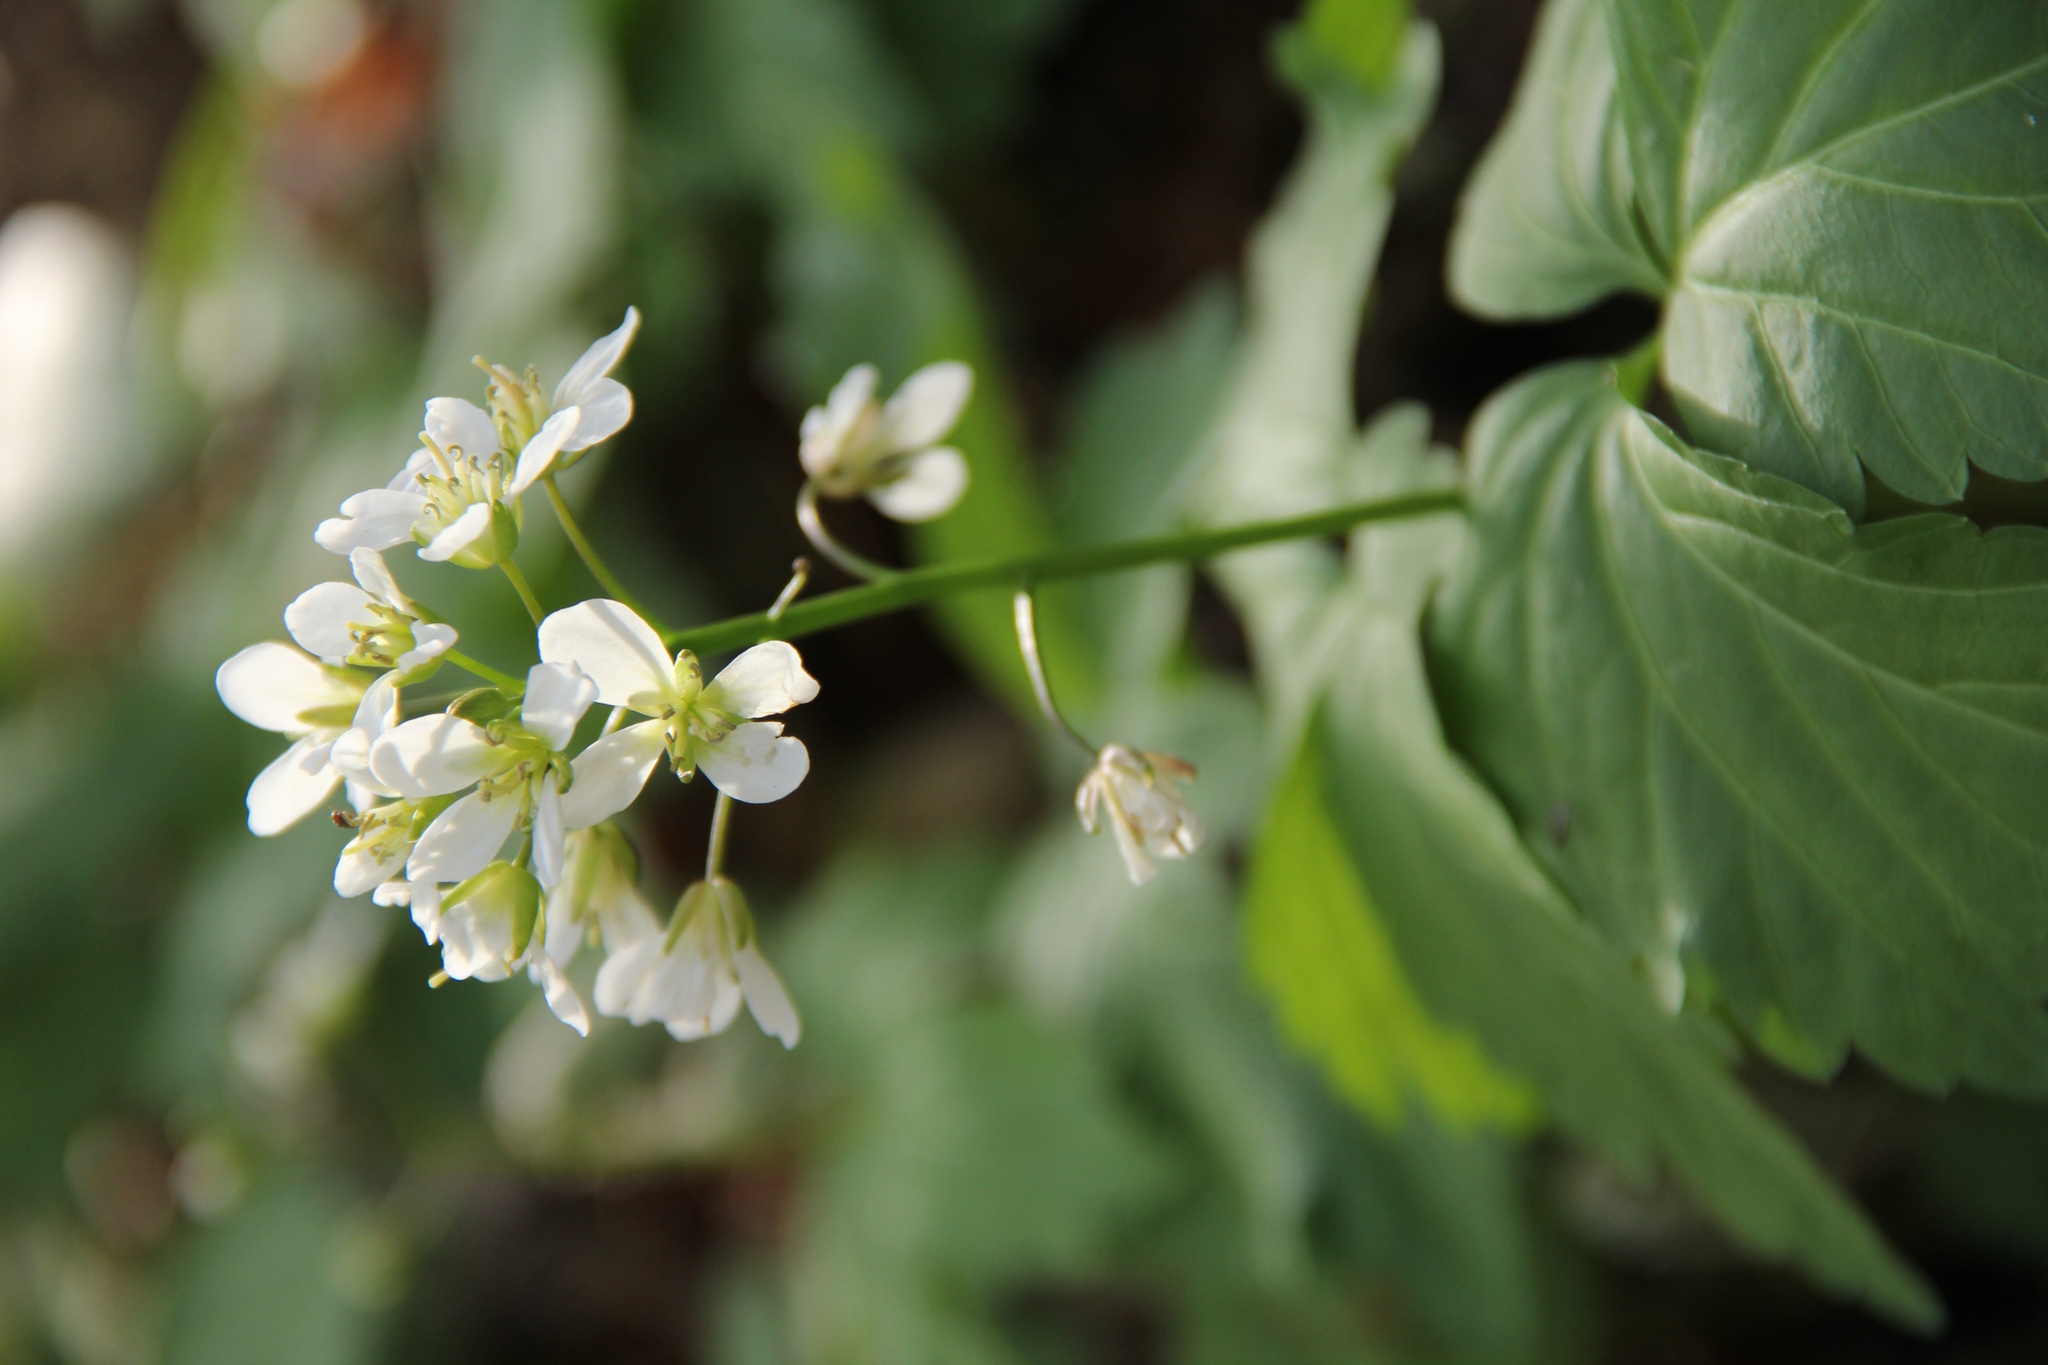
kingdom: Plantae
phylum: Tracheophyta
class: Magnoliopsida
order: Brassicales
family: Brassicaceae
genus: Cardamine
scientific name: Cardamine diphylla
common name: Broad-leaved toothwort
